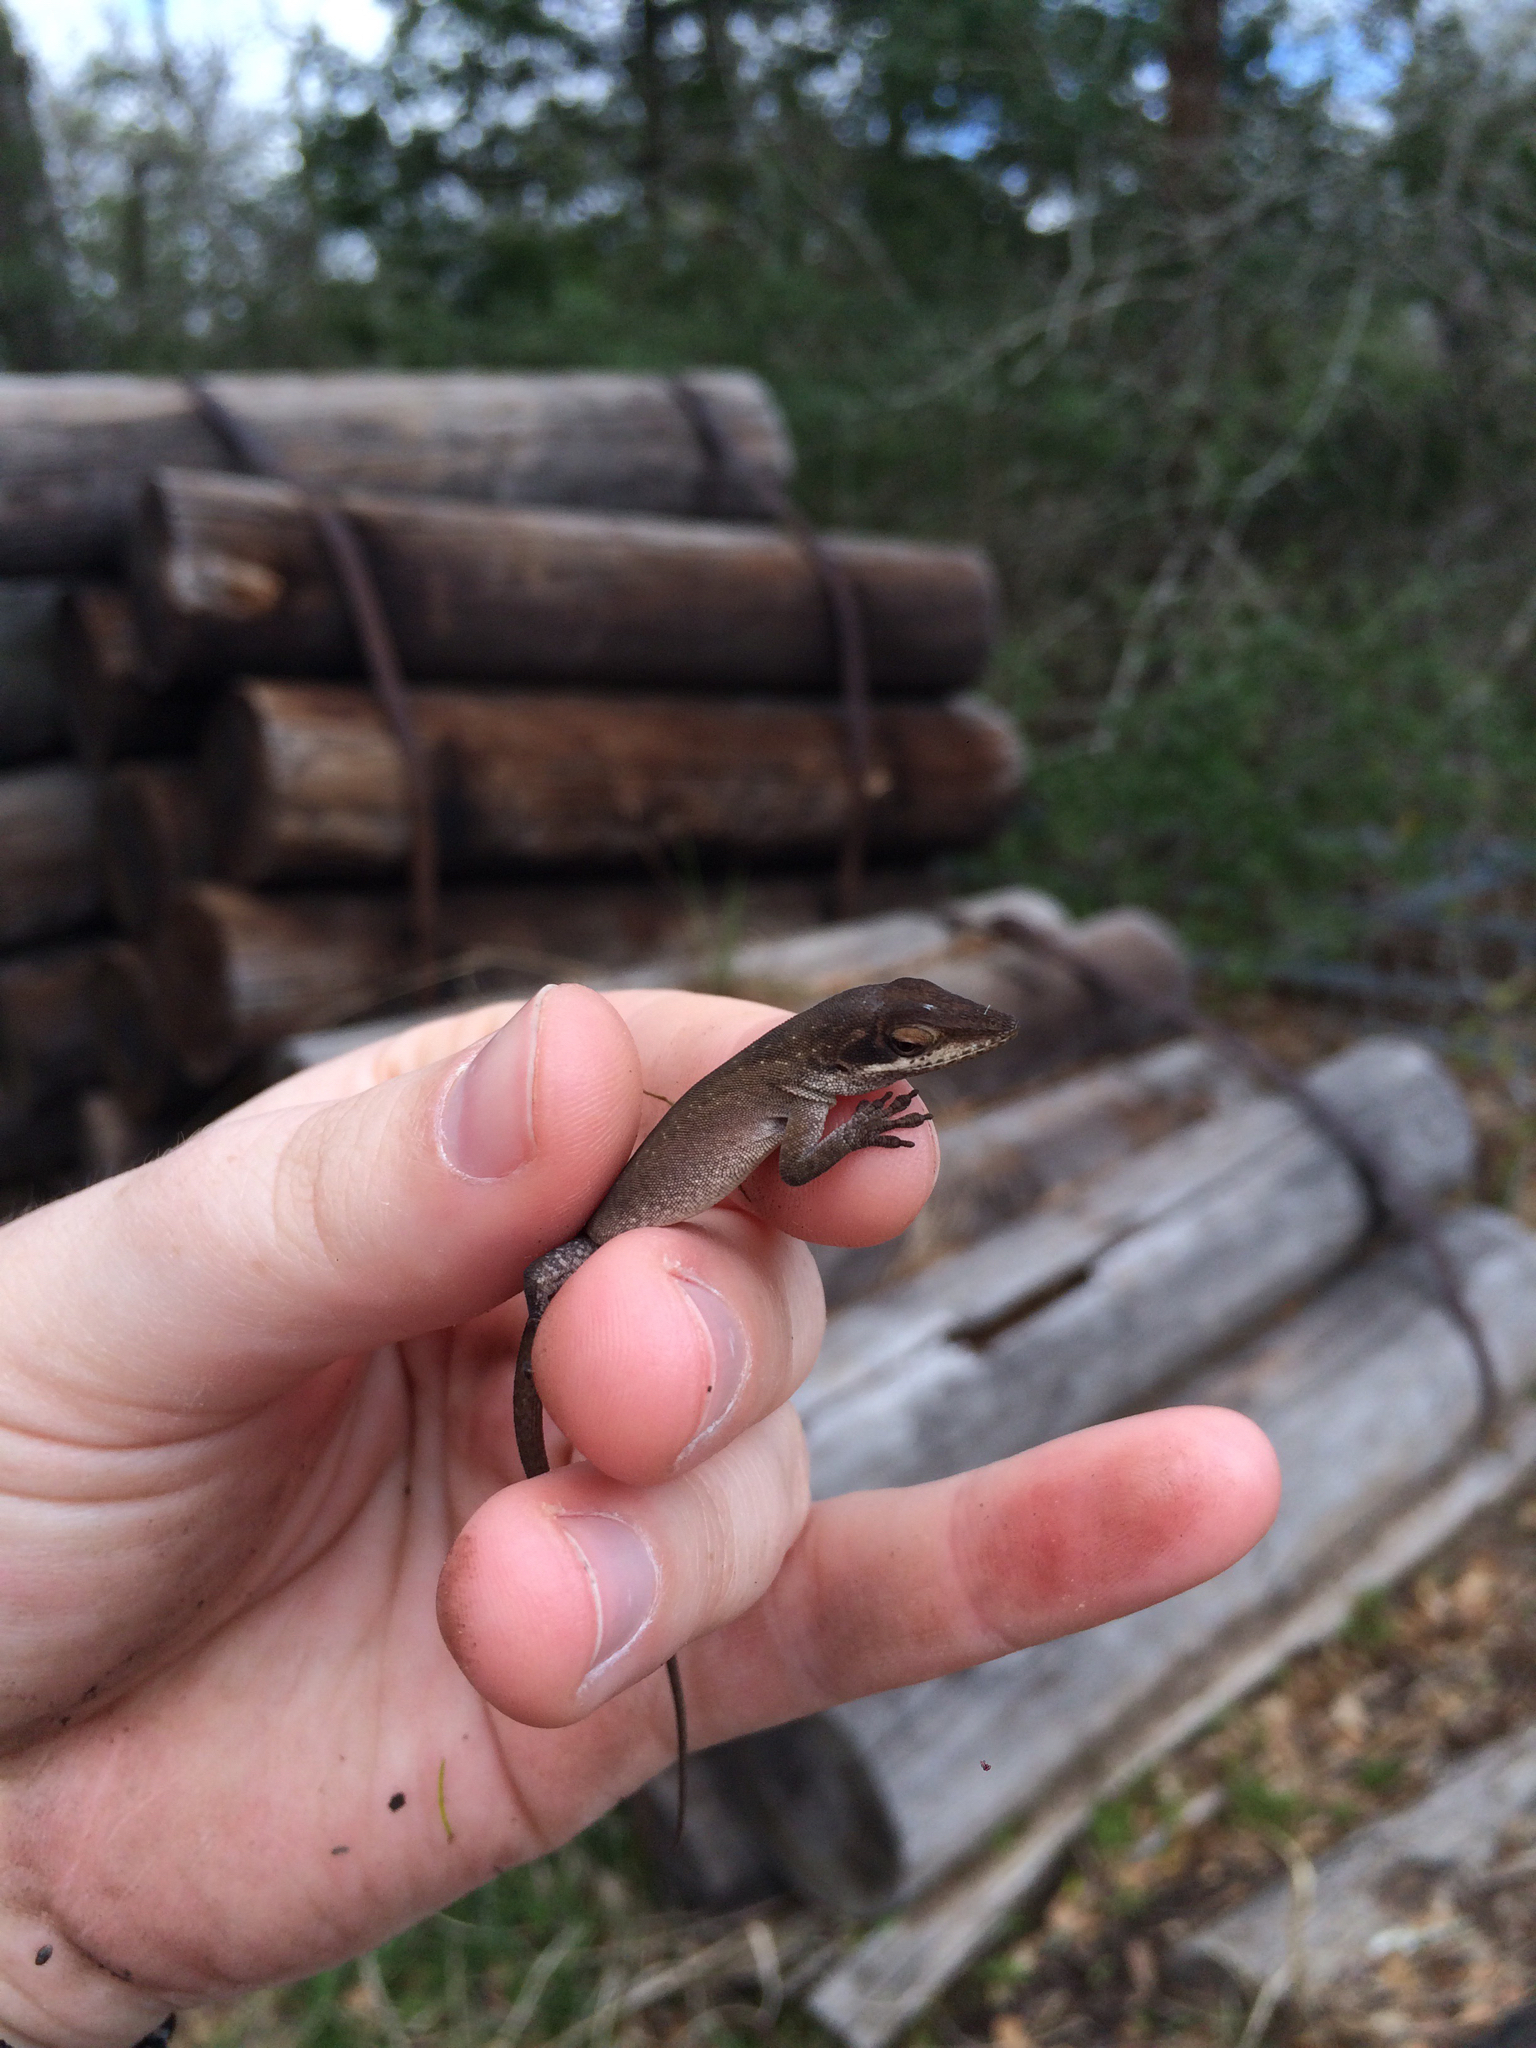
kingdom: Animalia
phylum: Chordata
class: Squamata
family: Dactyloidae
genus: Anolis
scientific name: Anolis carolinensis
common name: Green anole
